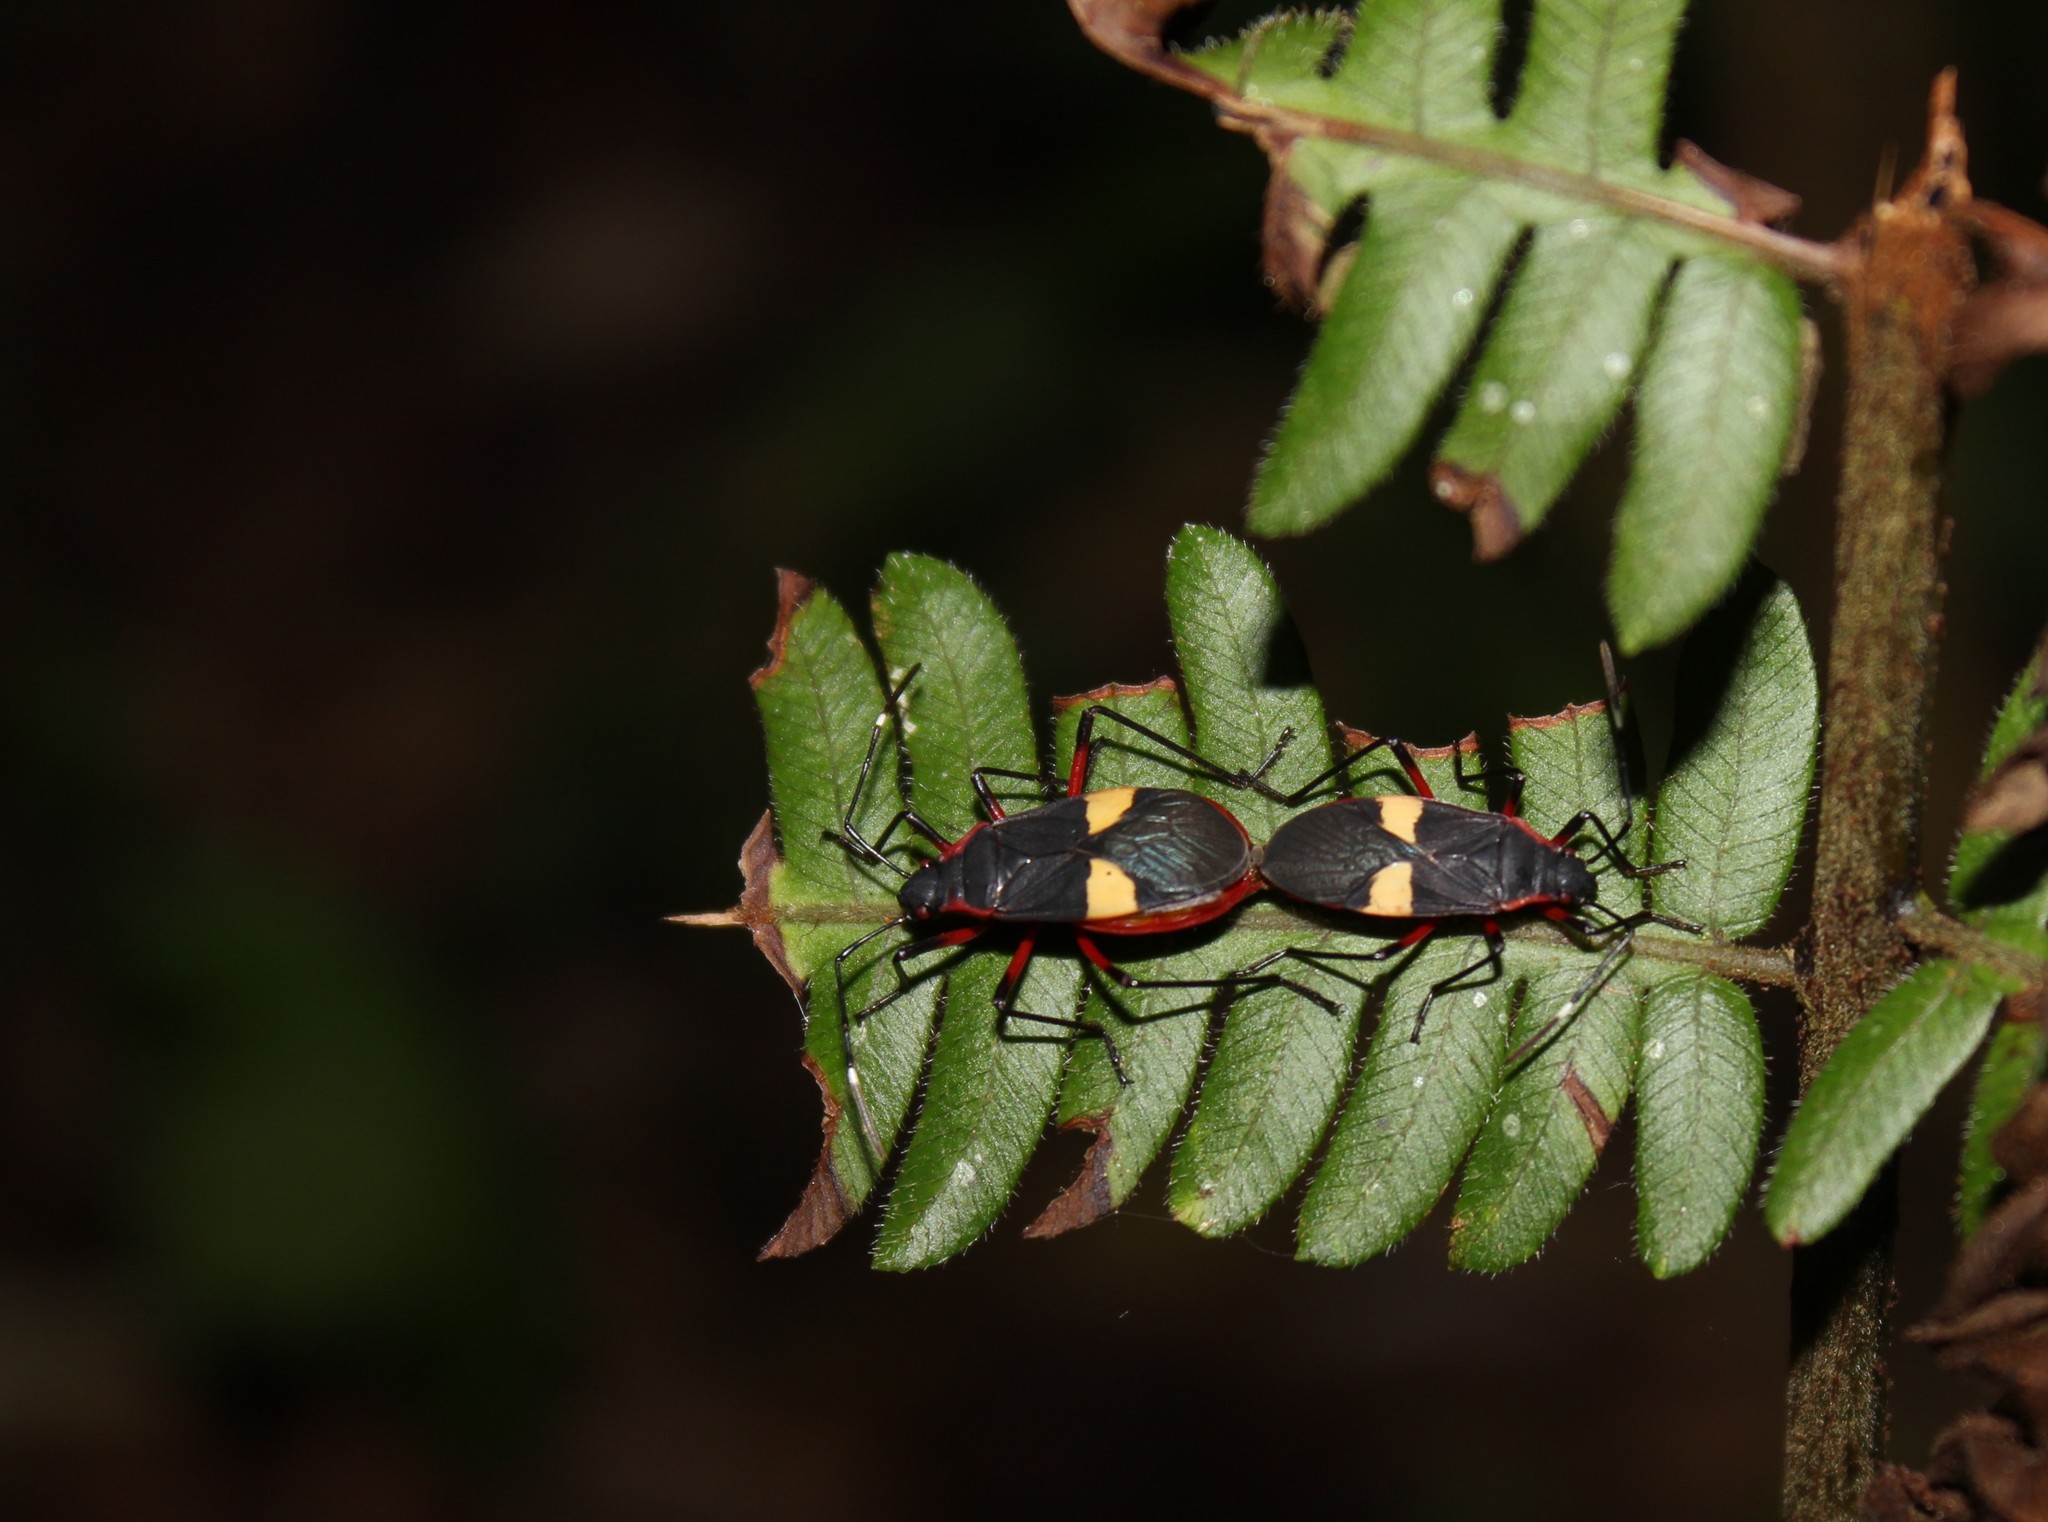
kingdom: Animalia
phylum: Arthropoda
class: Insecta
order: Hemiptera
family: Pyrrhocoridae
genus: Dysdercus
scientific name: Dysdercus albofasciatus
